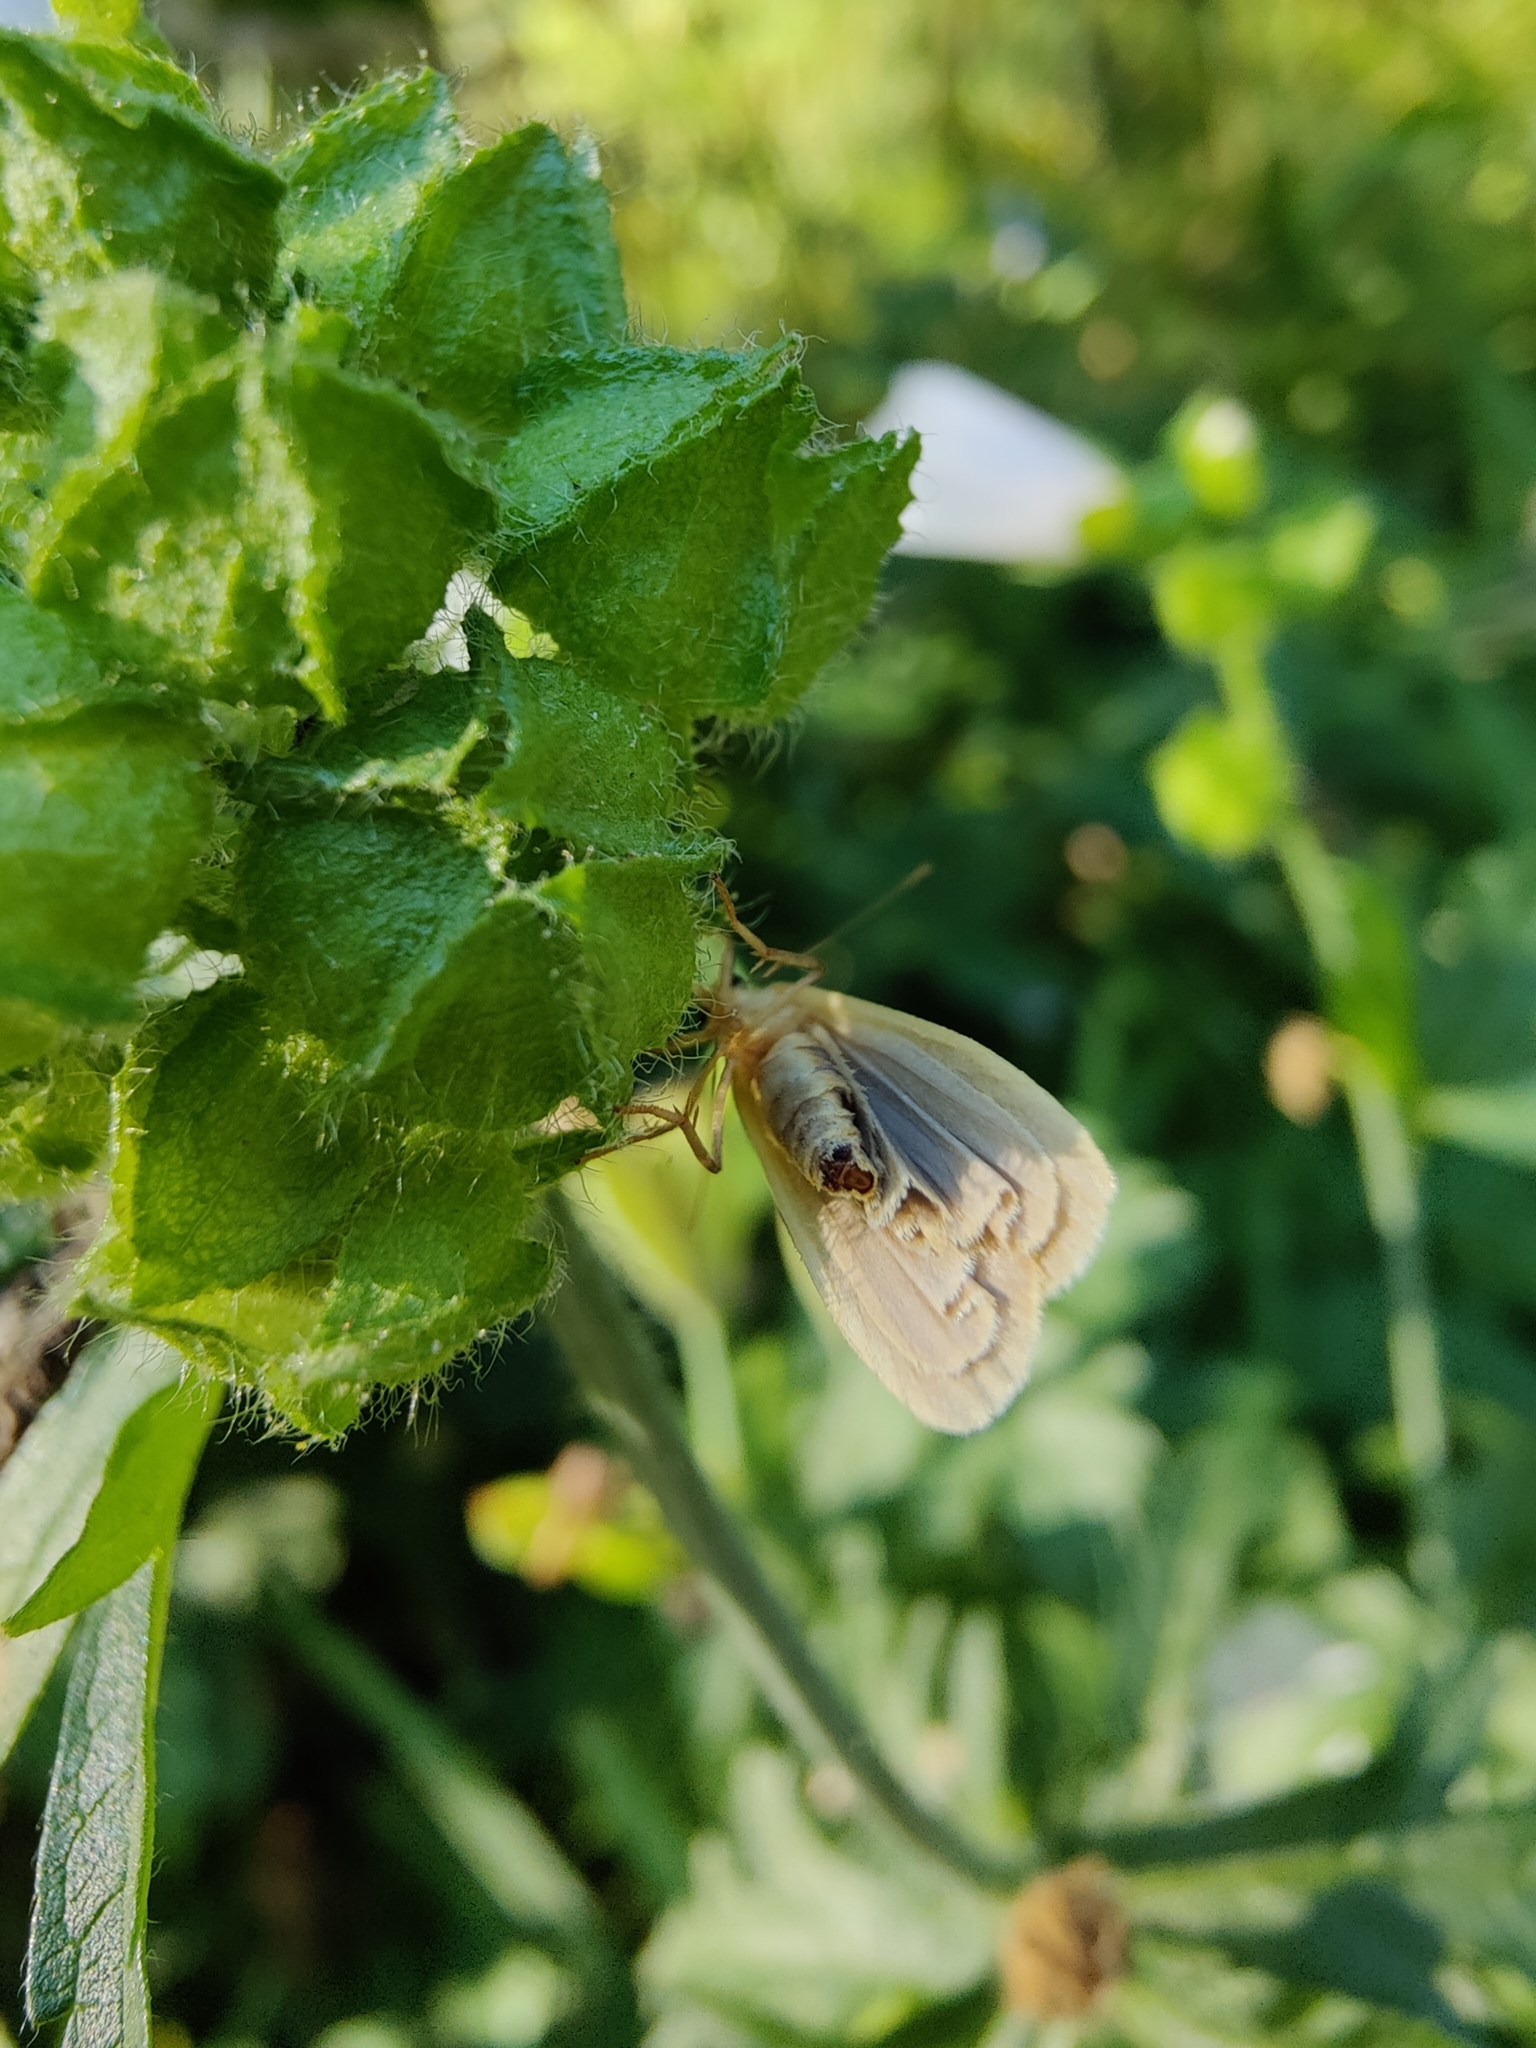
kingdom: Animalia
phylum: Arthropoda
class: Insecta
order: Lepidoptera
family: Erebidae
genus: Katha
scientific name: Katha depressa
